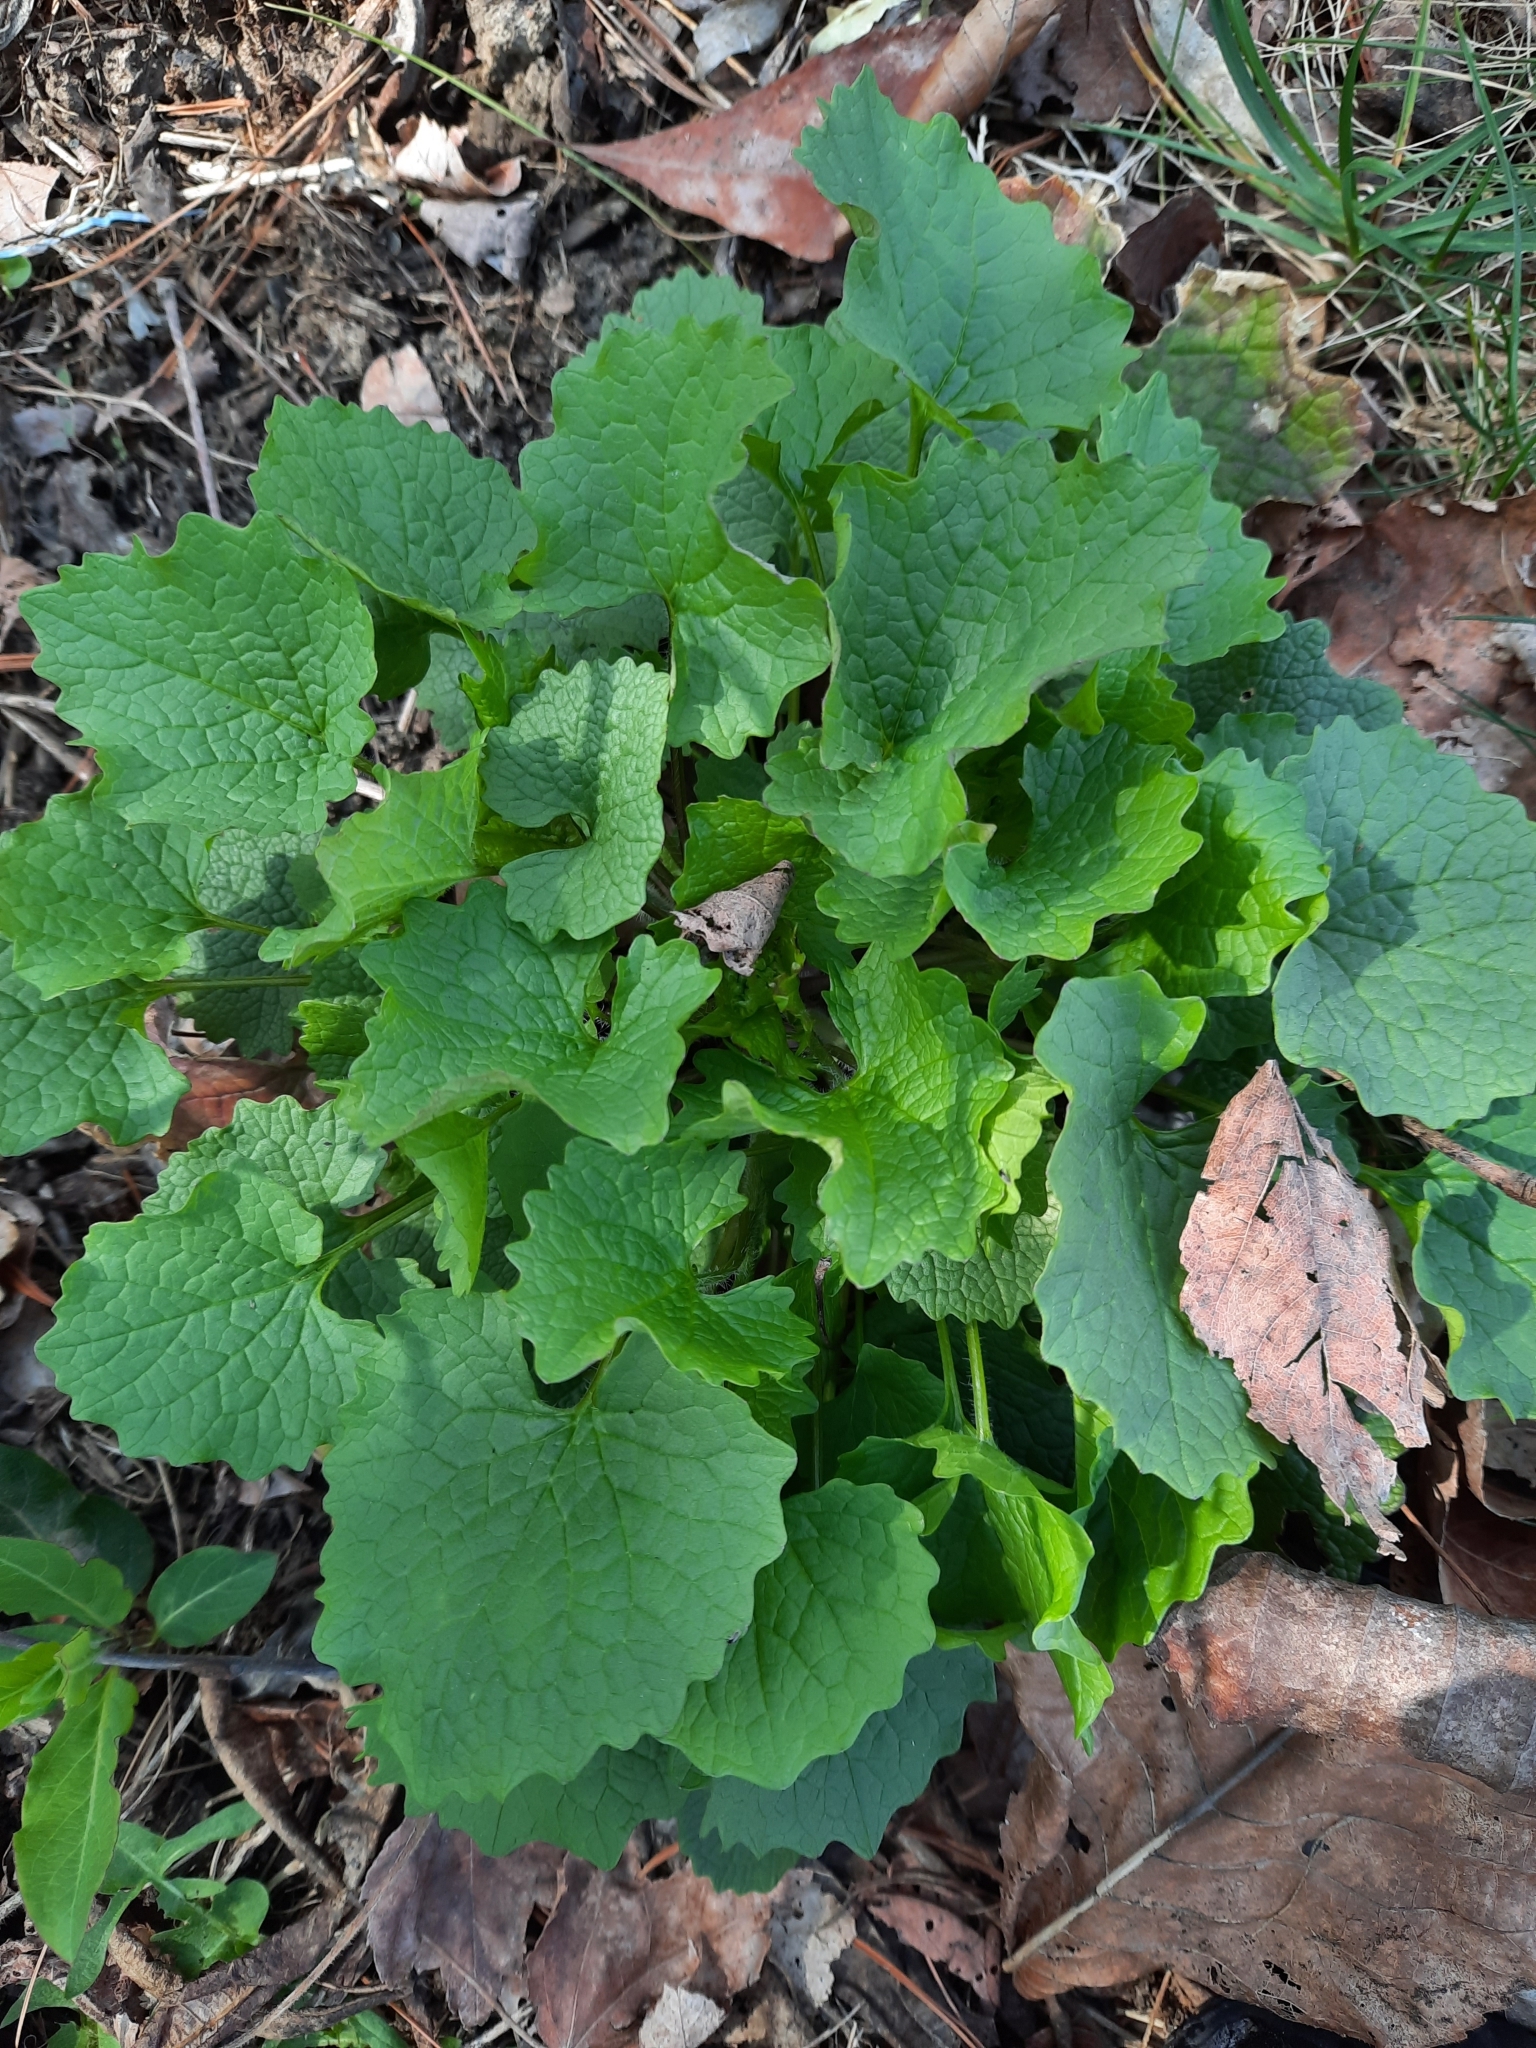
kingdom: Plantae
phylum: Tracheophyta
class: Magnoliopsida
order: Brassicales
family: Brassicaceae
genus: Alliaria
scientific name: Alliaria petiolata
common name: Garlic mustard
